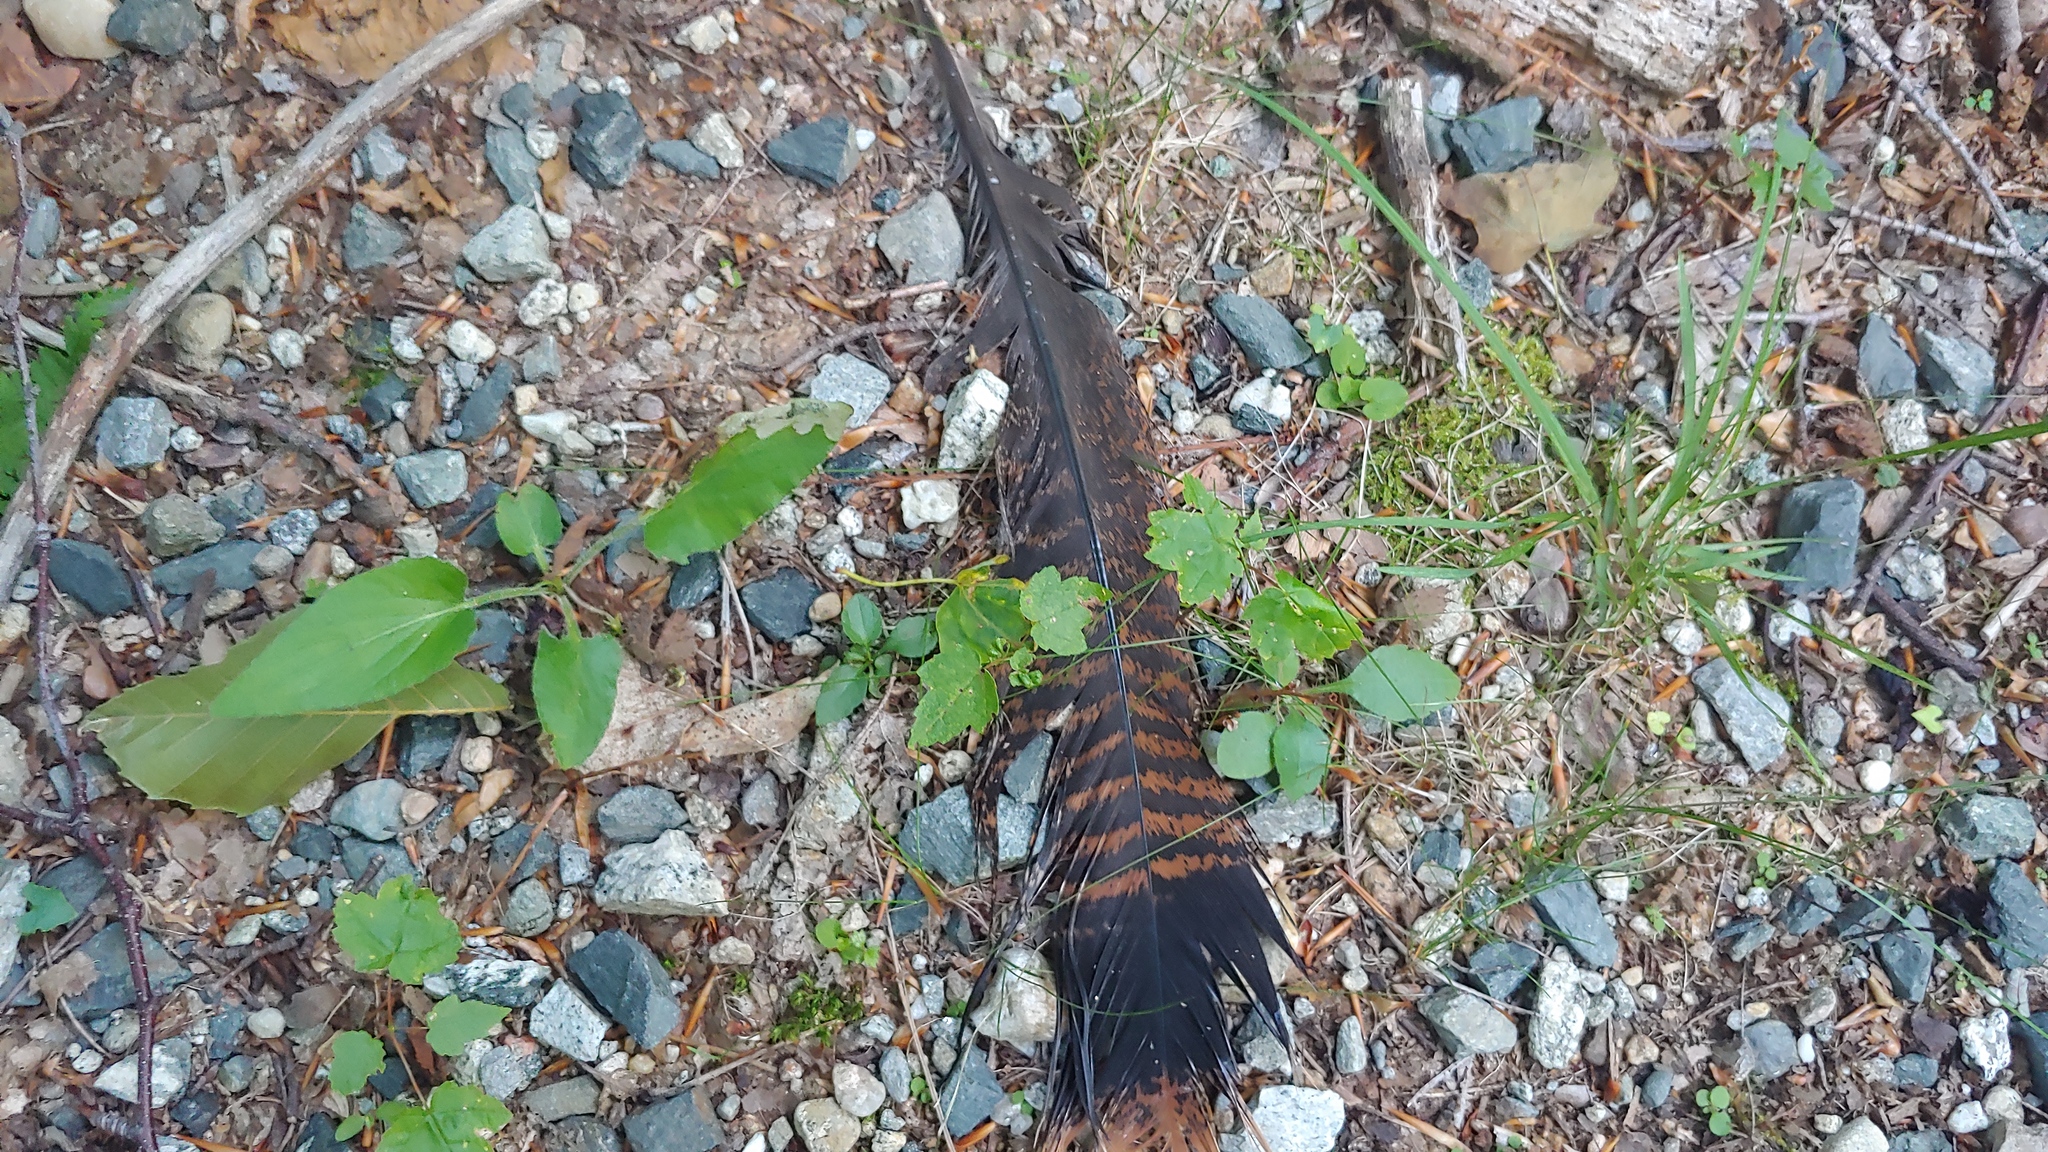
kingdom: Animalia
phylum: Chordata
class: Aves
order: Galliformes
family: Phasianidae
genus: Meleagris
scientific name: Meleagris gallopavo
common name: Wild turkey
